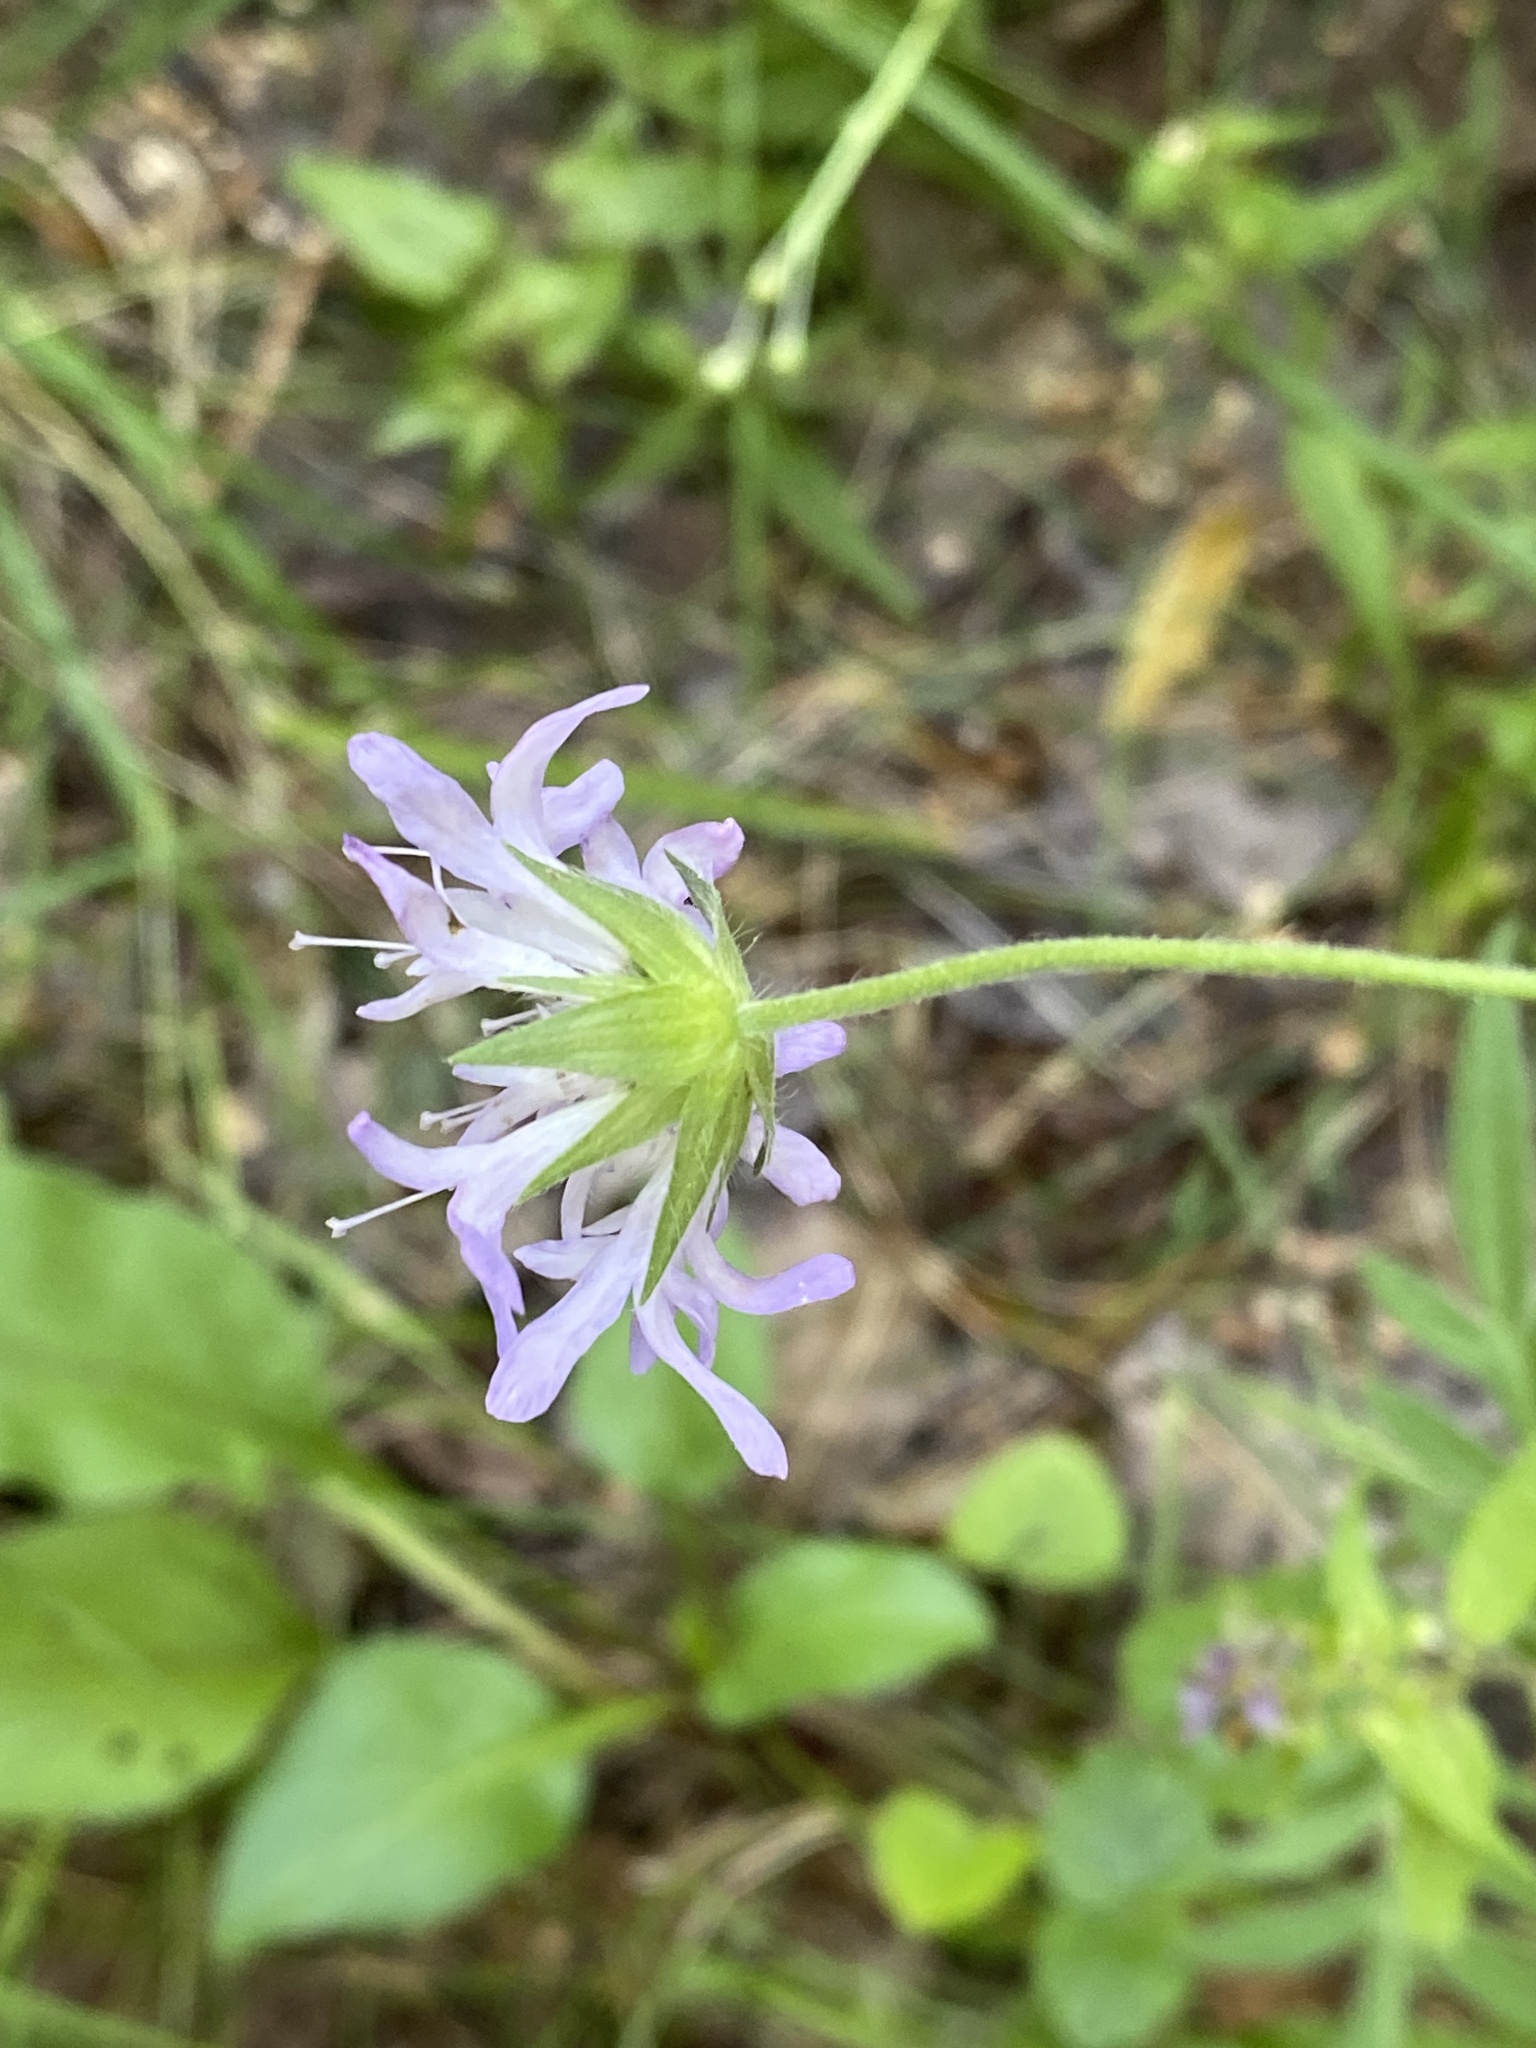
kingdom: Plantae
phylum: Tracheophyta
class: Magnoliopsida
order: Dipsacales
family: Caprifoliaceae
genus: Knautia
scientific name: Knautia arvensis
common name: Field scabiosa
